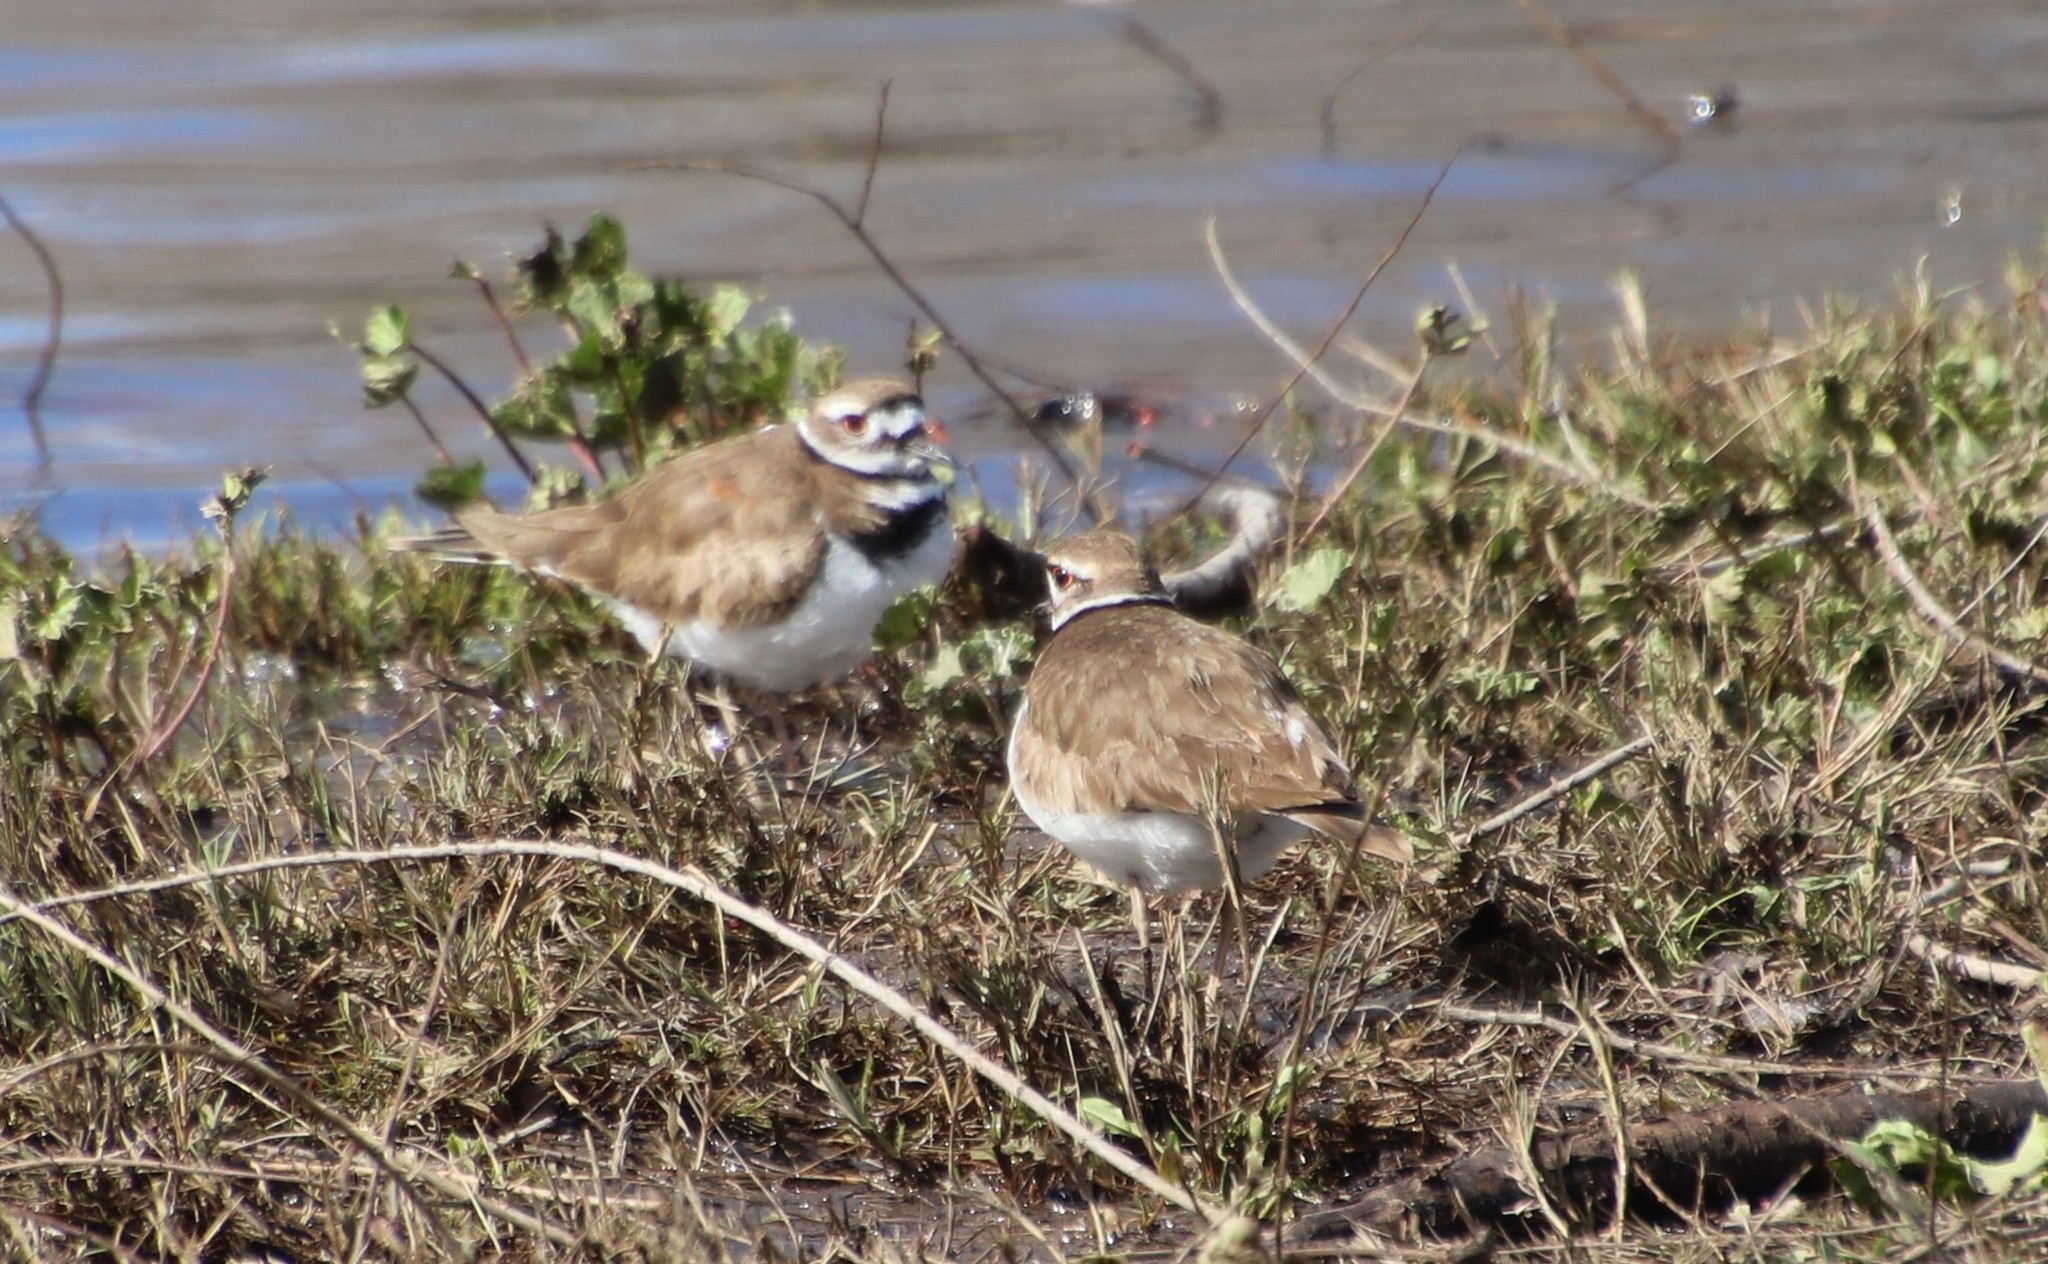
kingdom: Animalia
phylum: Chordata
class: Aves
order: Charadriiformes
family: Charadriidae
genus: Charadrius
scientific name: Charadrius vociferus
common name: Killdeer
